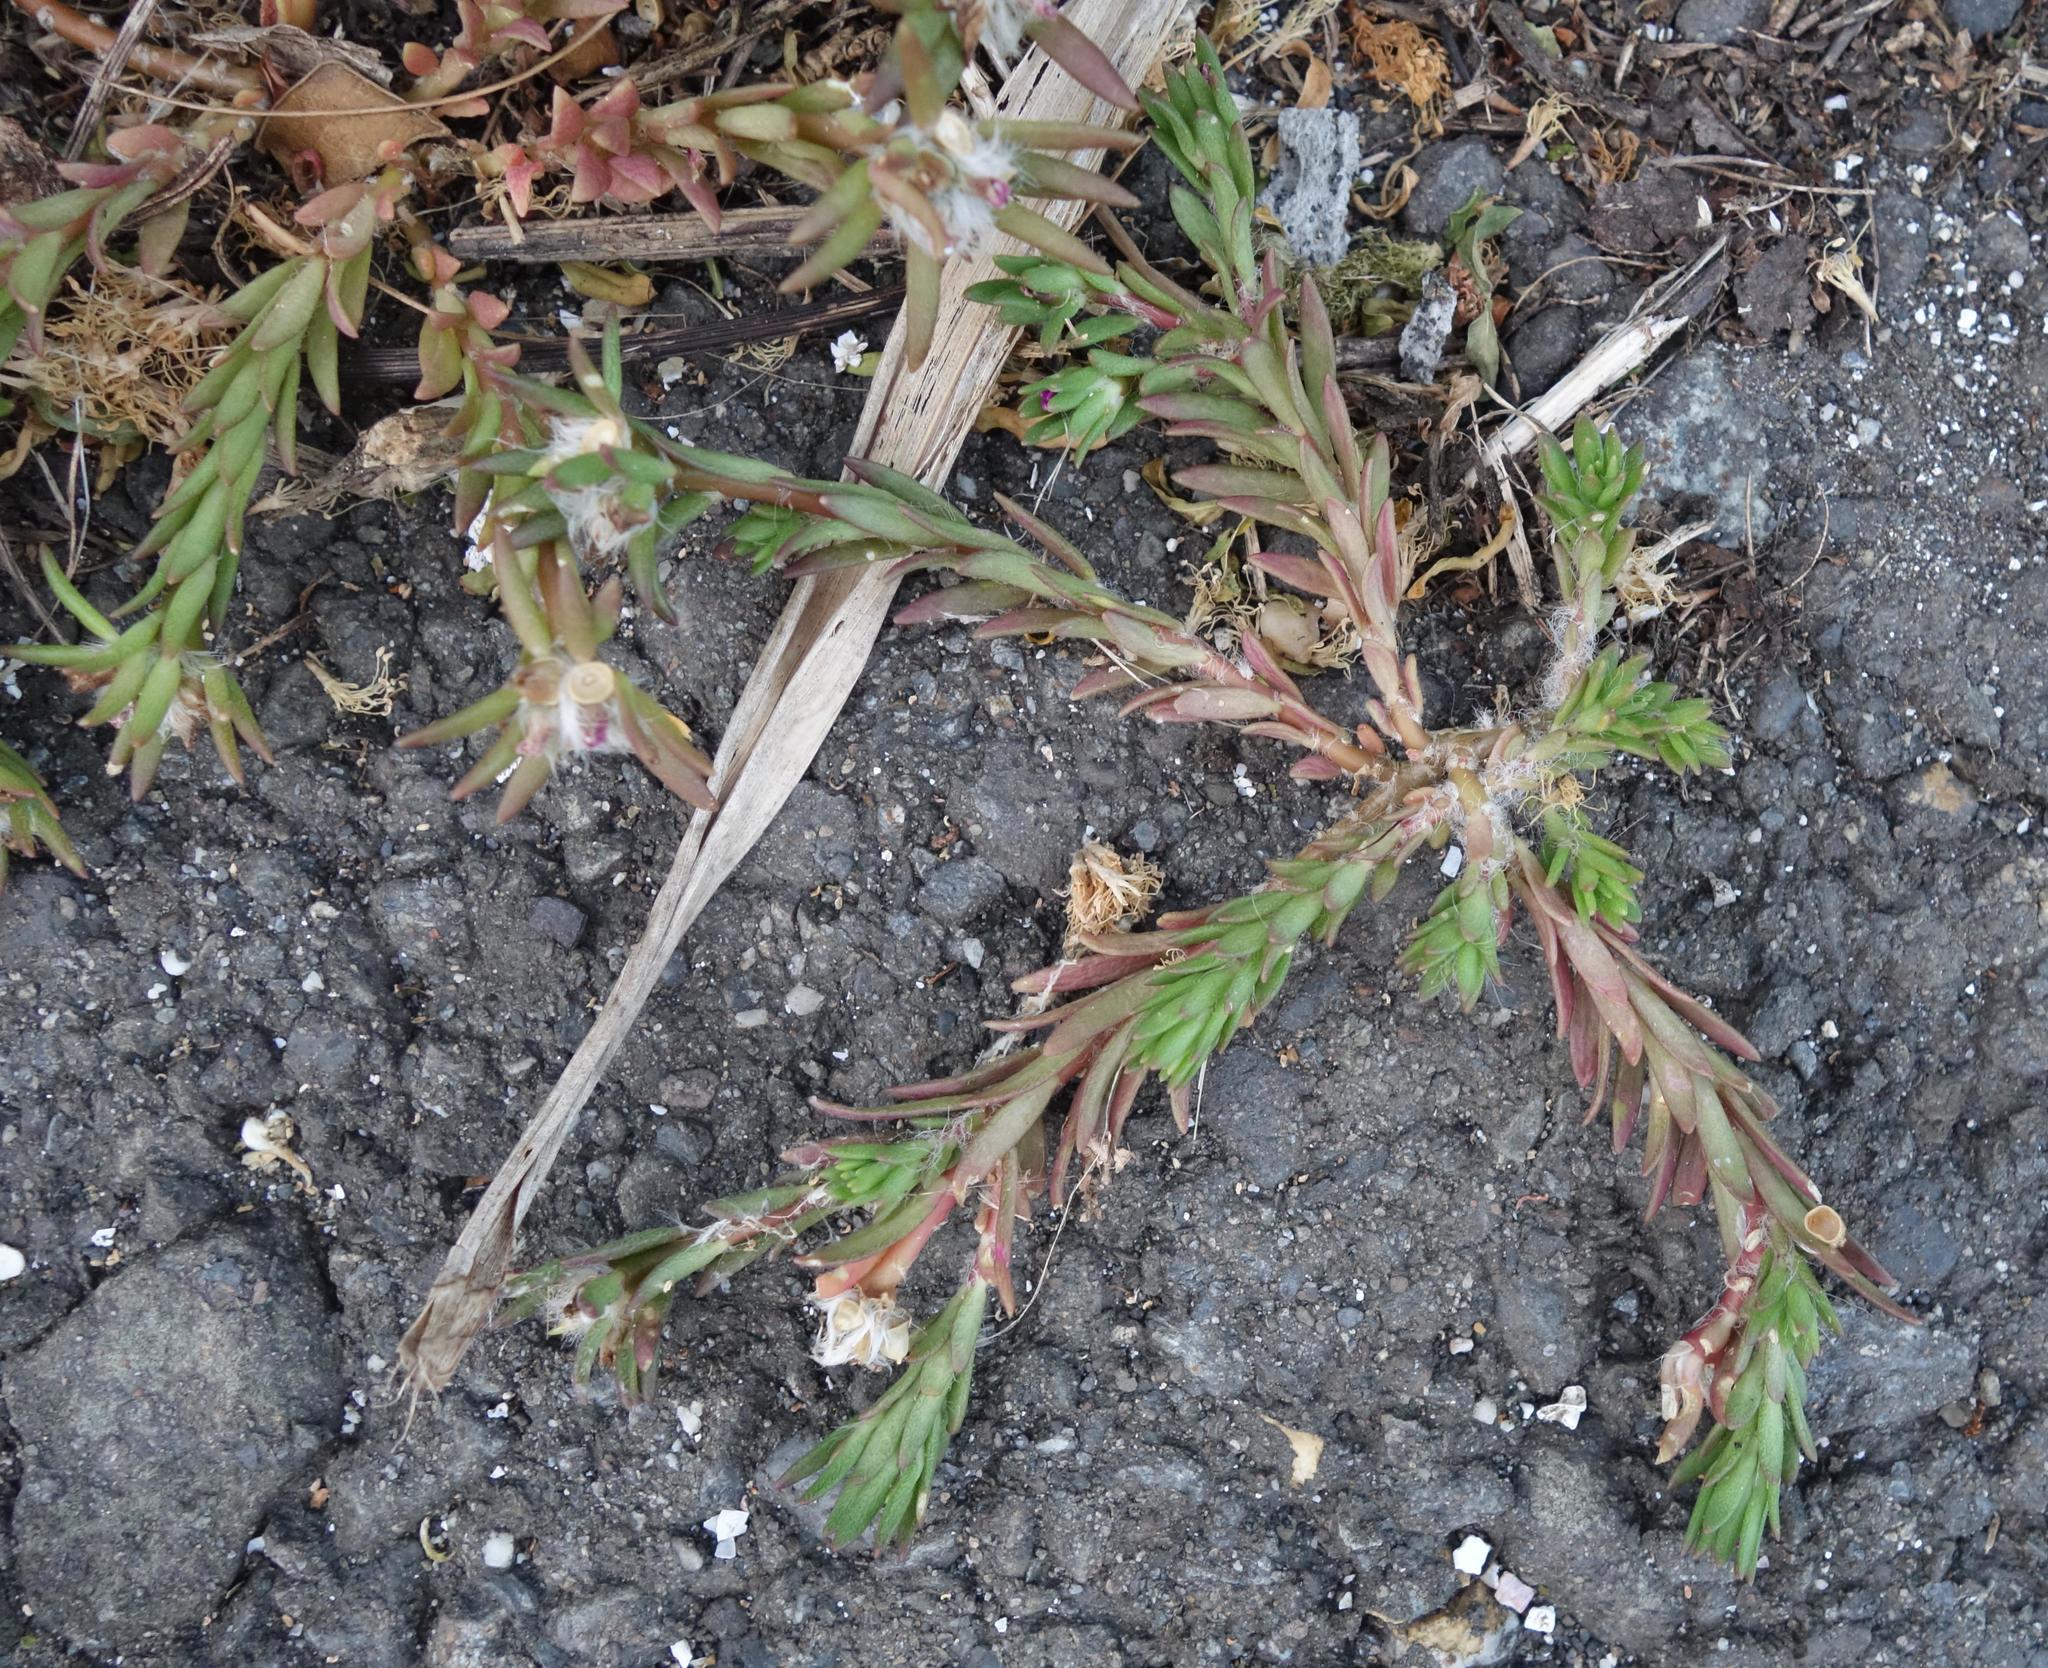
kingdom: Plantae
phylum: Tracheophyta
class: Magnoliopsida
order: Caryophyllales
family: Portulacaceae
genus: Portulaca
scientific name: Portulaca pilosa
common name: Kiss me quick
